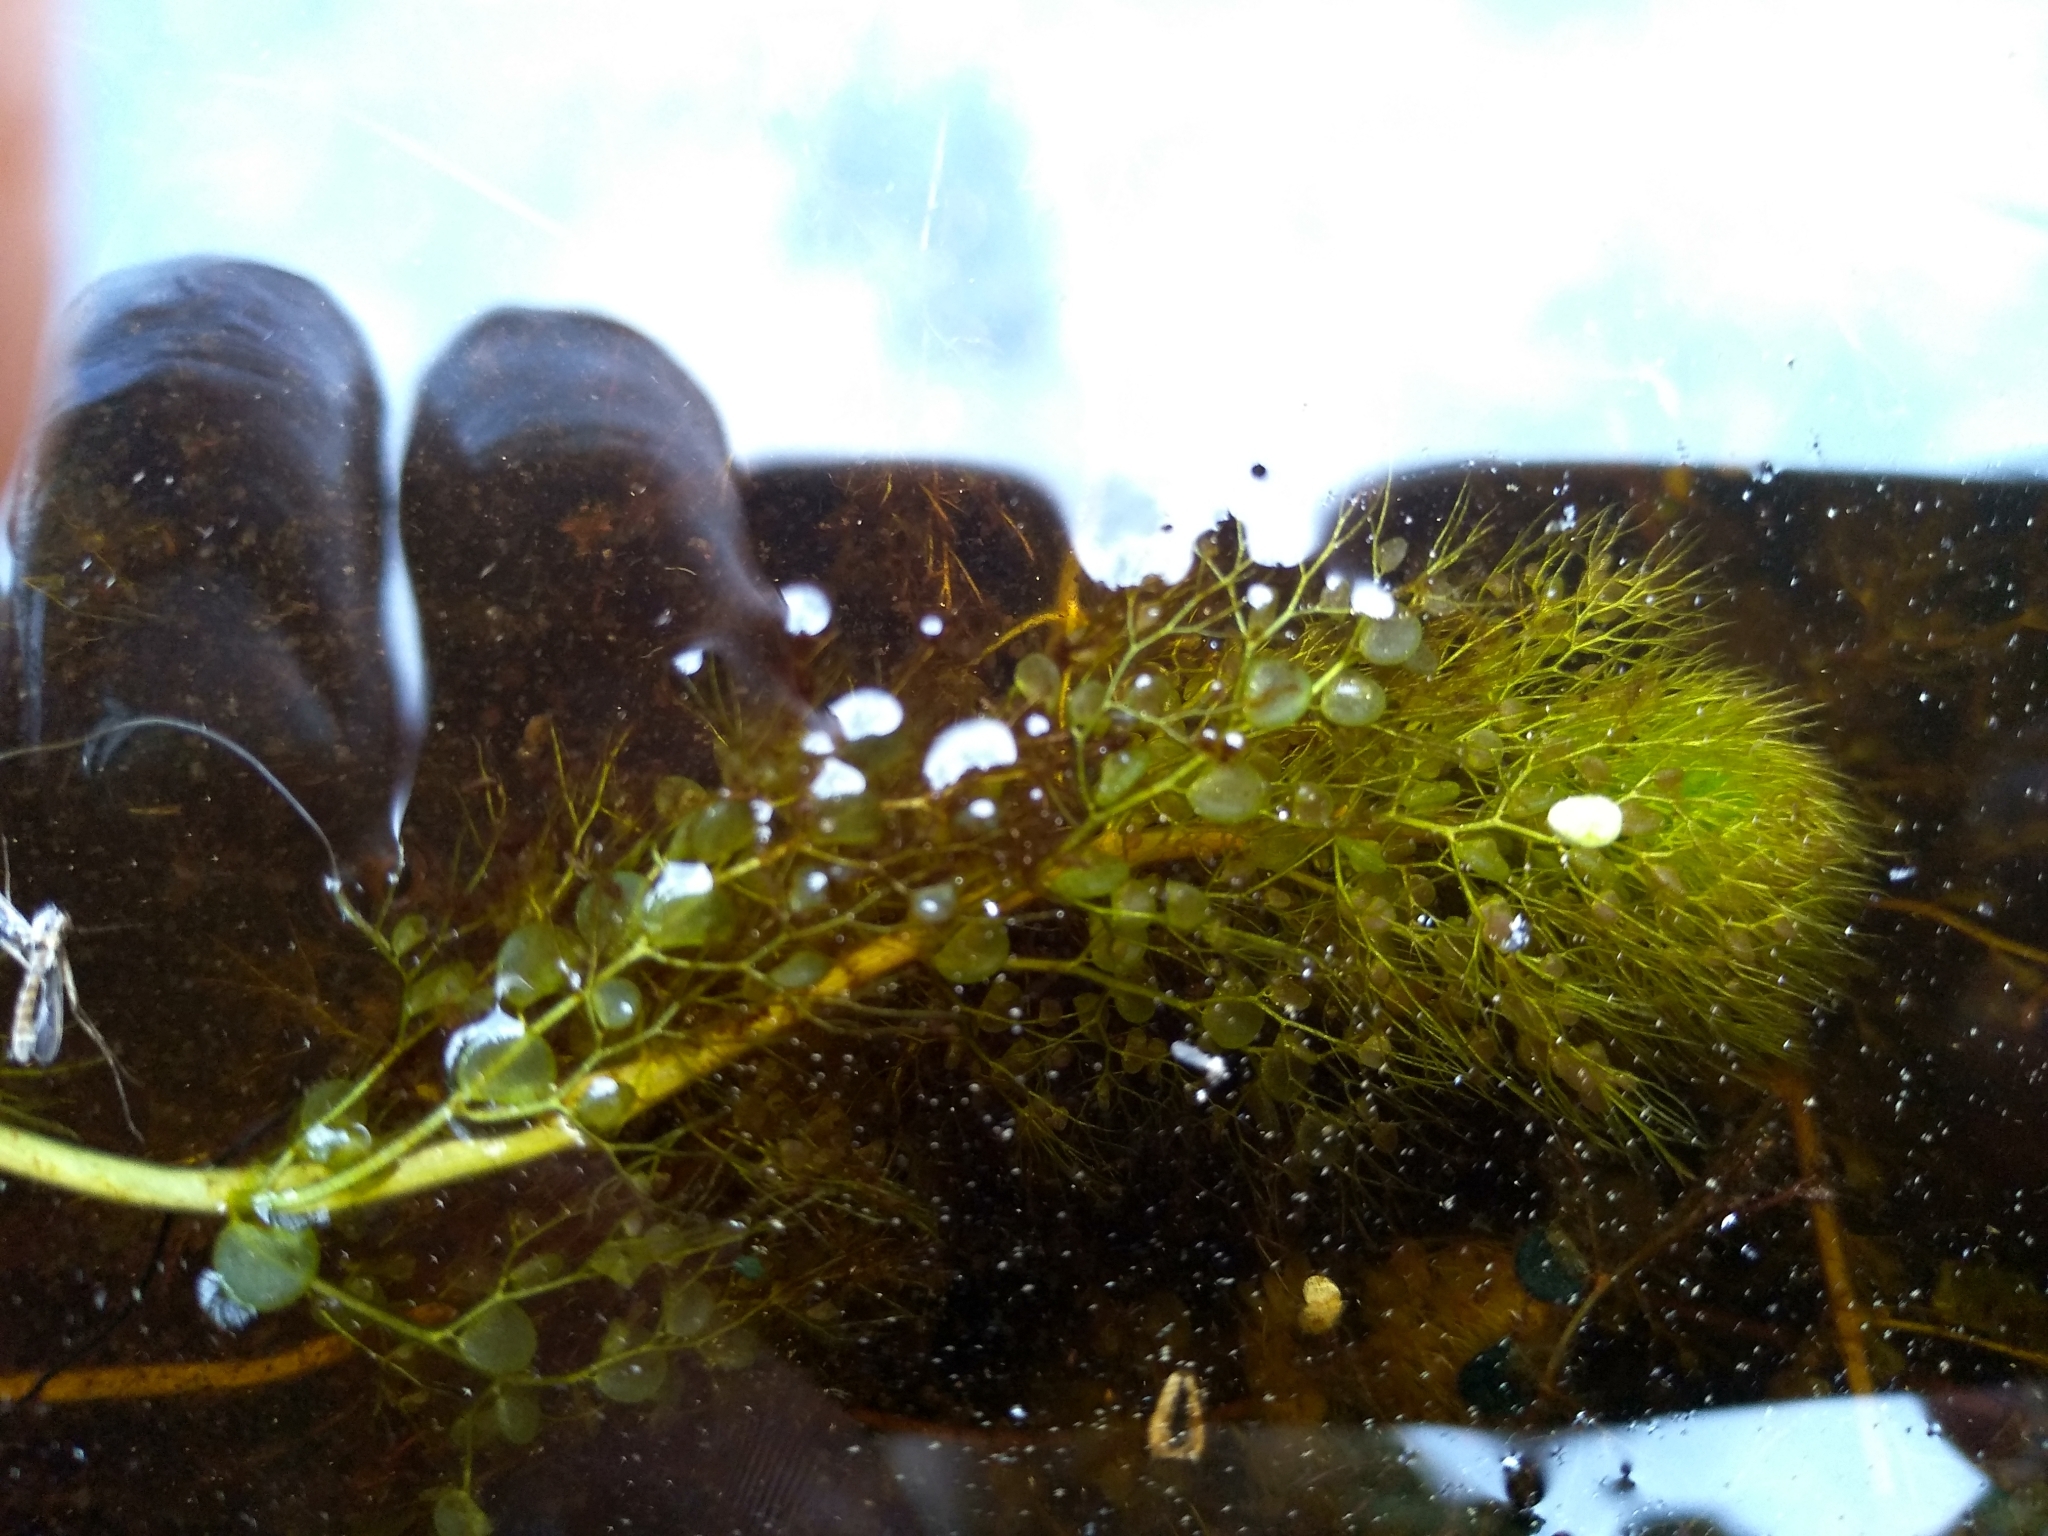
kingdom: Plantae
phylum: Tracheophyta
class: Magnoliopsida
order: Lamiales
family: Lentibulariaceae
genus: Utricularia
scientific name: Utricularia
